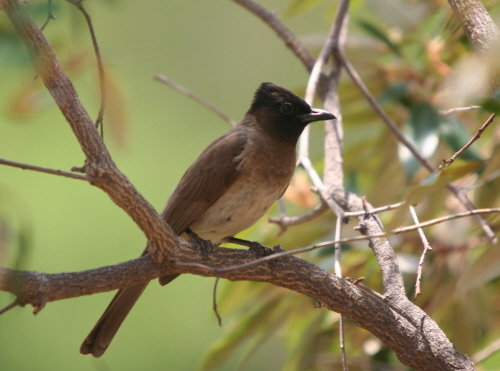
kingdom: Animalia
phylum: Chordata
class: Aves
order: Passeriformes
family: Pycnonotidae
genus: Pycnonotus
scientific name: Pycnonotus barbatus
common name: Common bulbul
